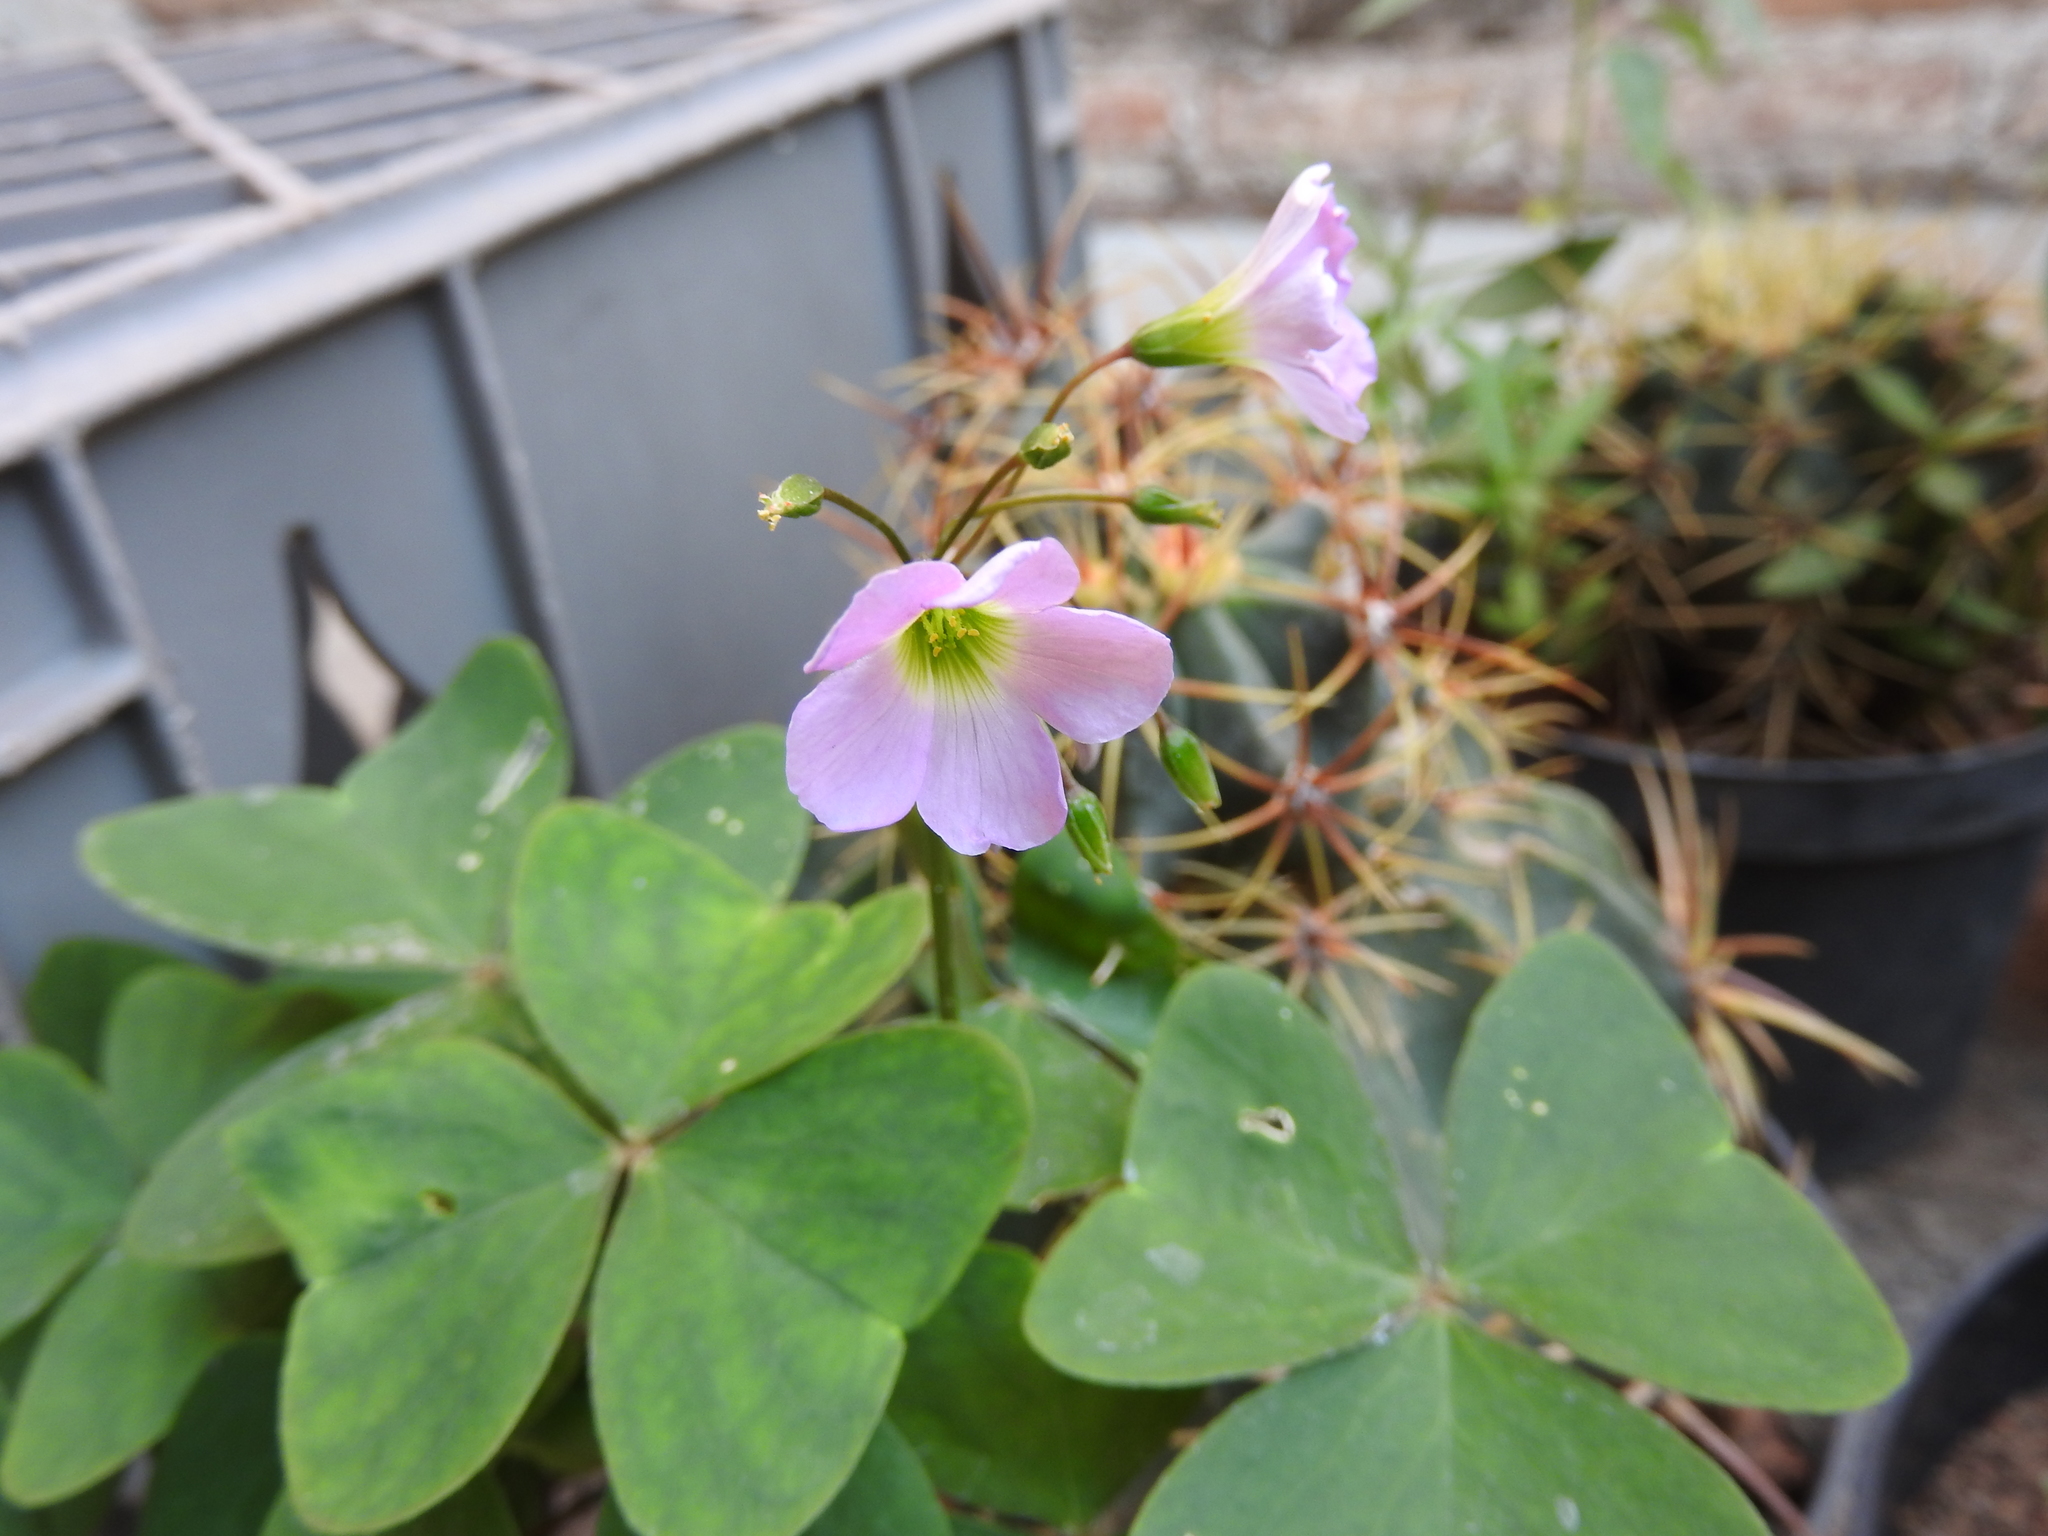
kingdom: Plantae
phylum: Tracheophyta
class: Magnoliopsida
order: Oxalidales
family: Oxalidaceae
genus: Oxalis
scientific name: Oxalis latifolia
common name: Garden pink-sorrel
